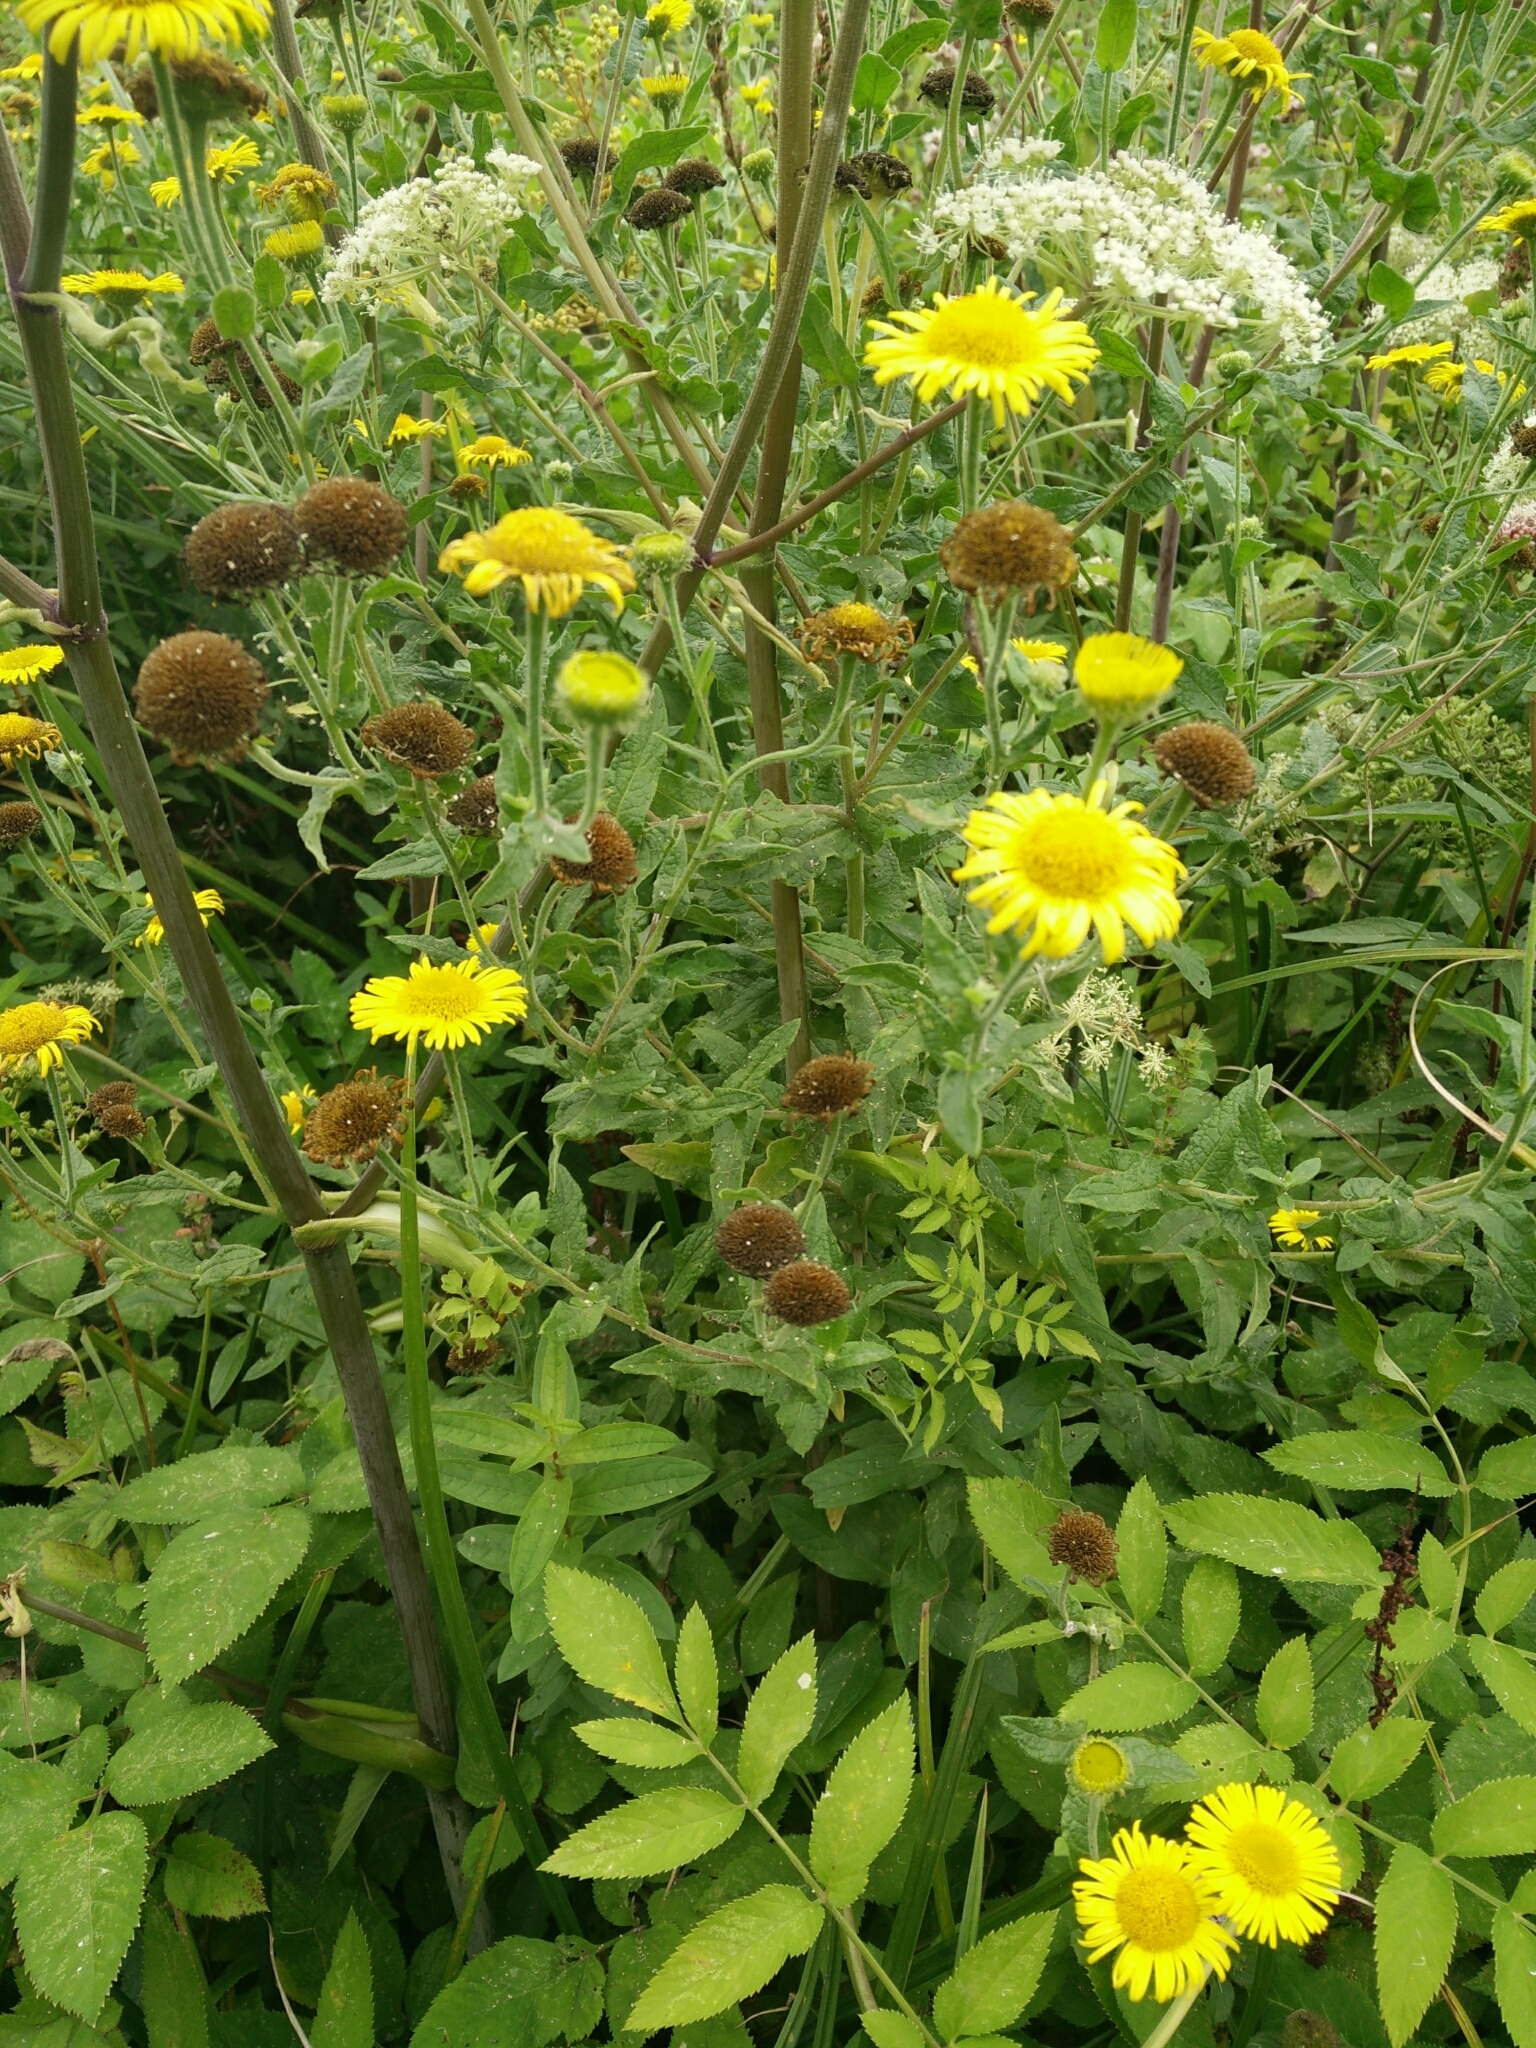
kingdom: Plantae
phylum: Tracheophyta
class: Magnoliopsida
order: Asterales
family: Asteraceae
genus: Pulicaria
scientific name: Pulicaria dysenterica
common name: Common fleabane
